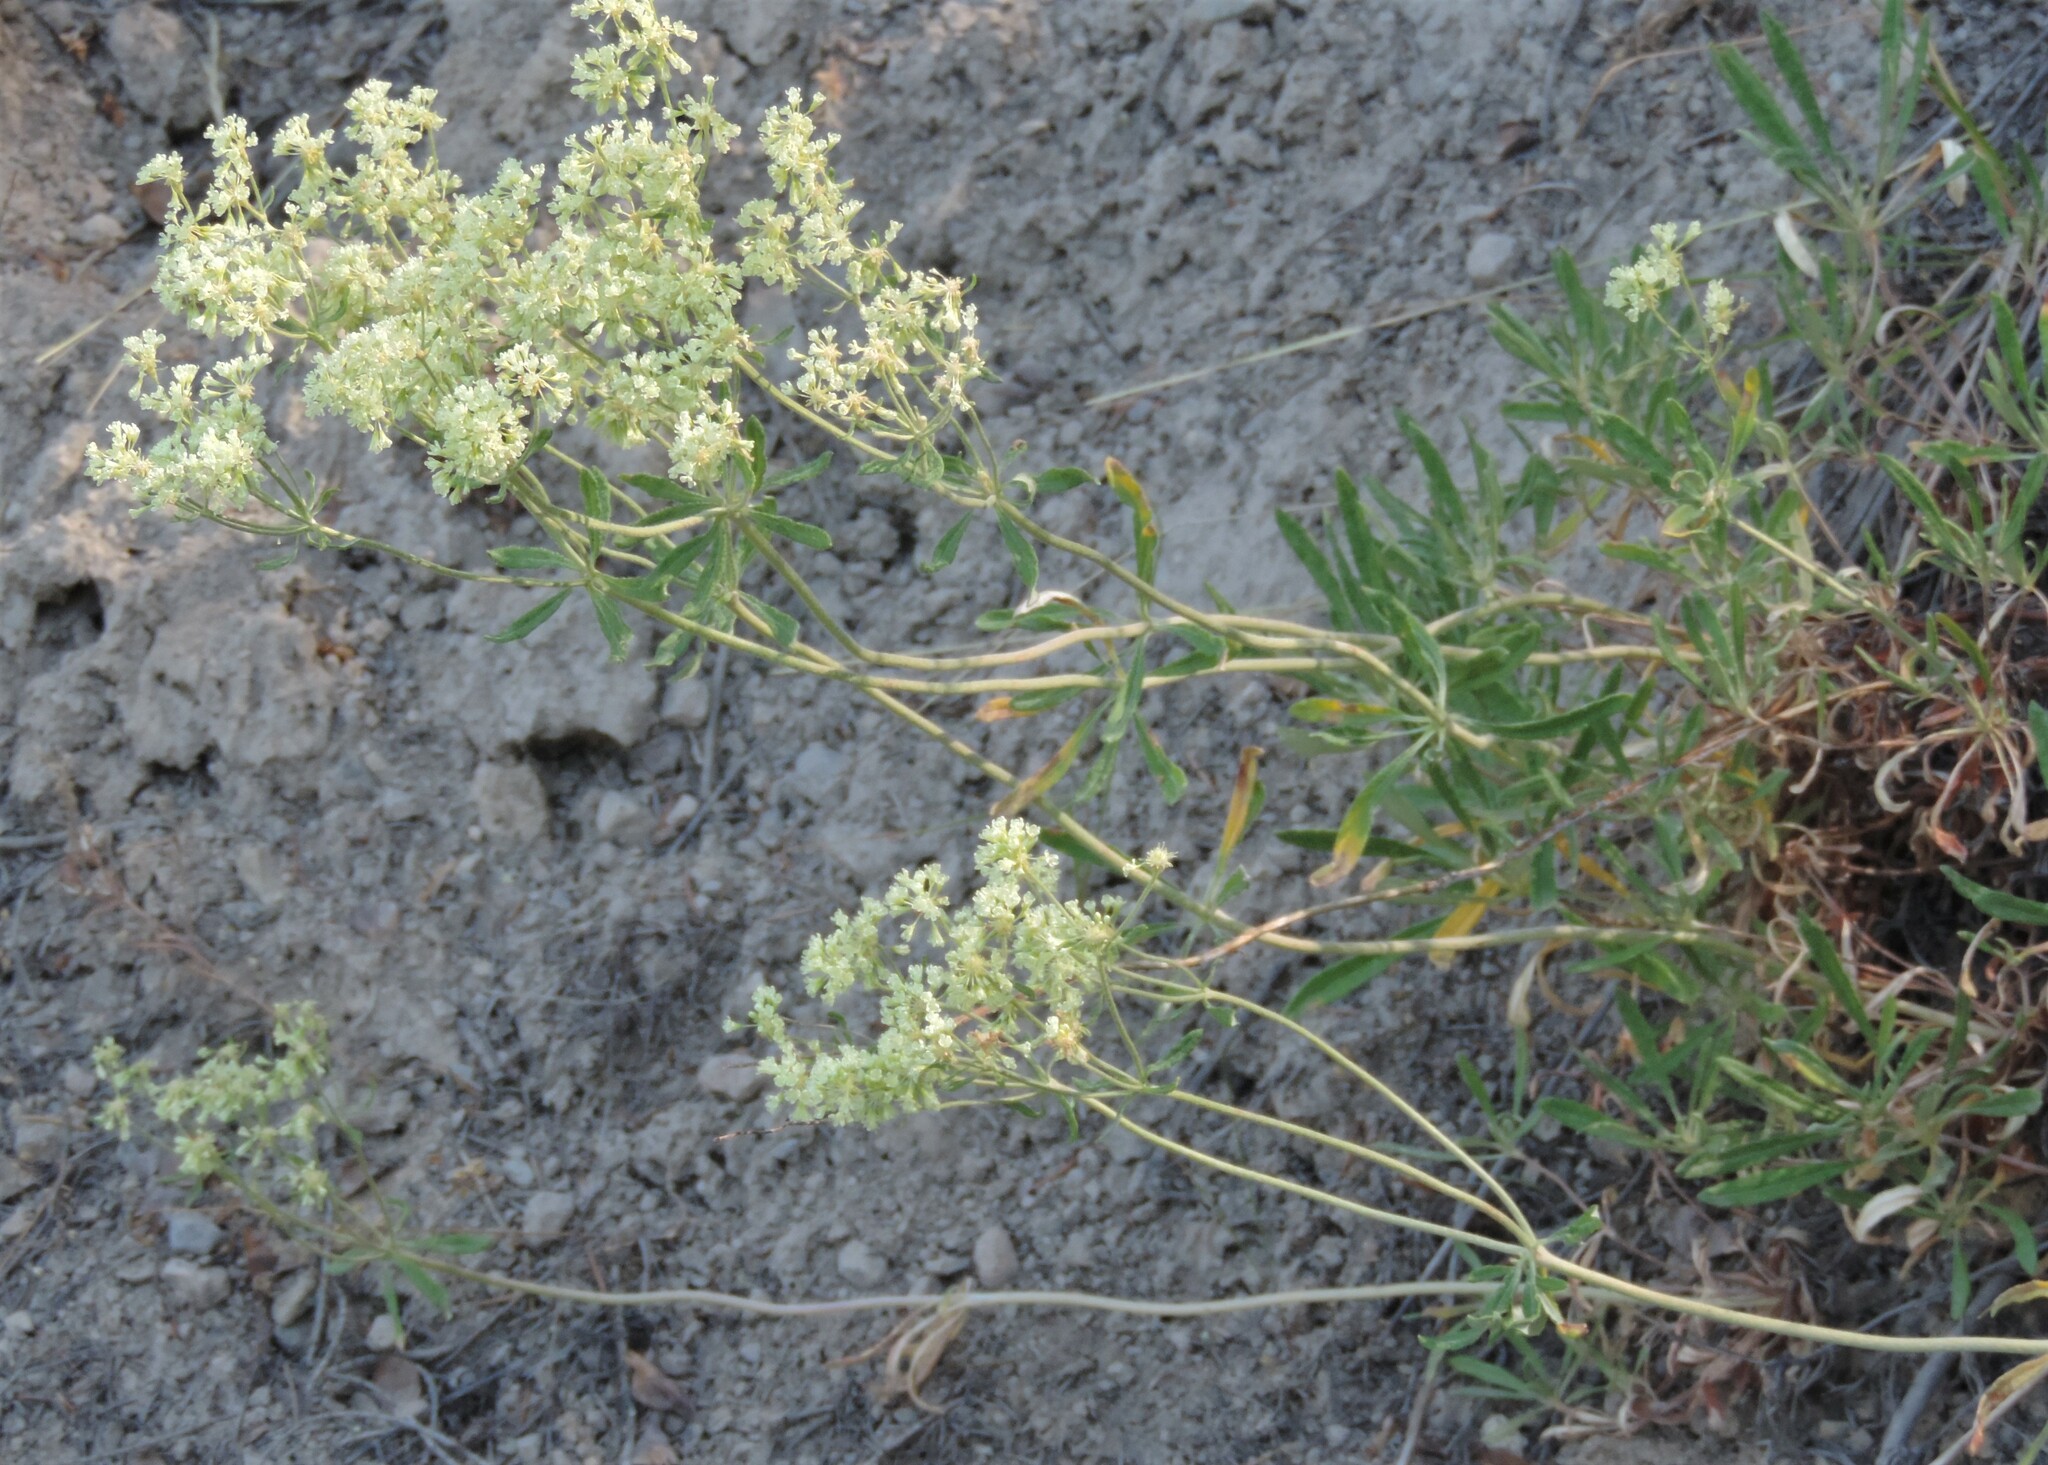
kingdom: Plantae
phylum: Tracheophyta
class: Magnoliopsida
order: Caryophyllales
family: Polygonaceae
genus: Eriogonum
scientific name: Eriogonum heracleoides
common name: Wyeth's buckwheat
